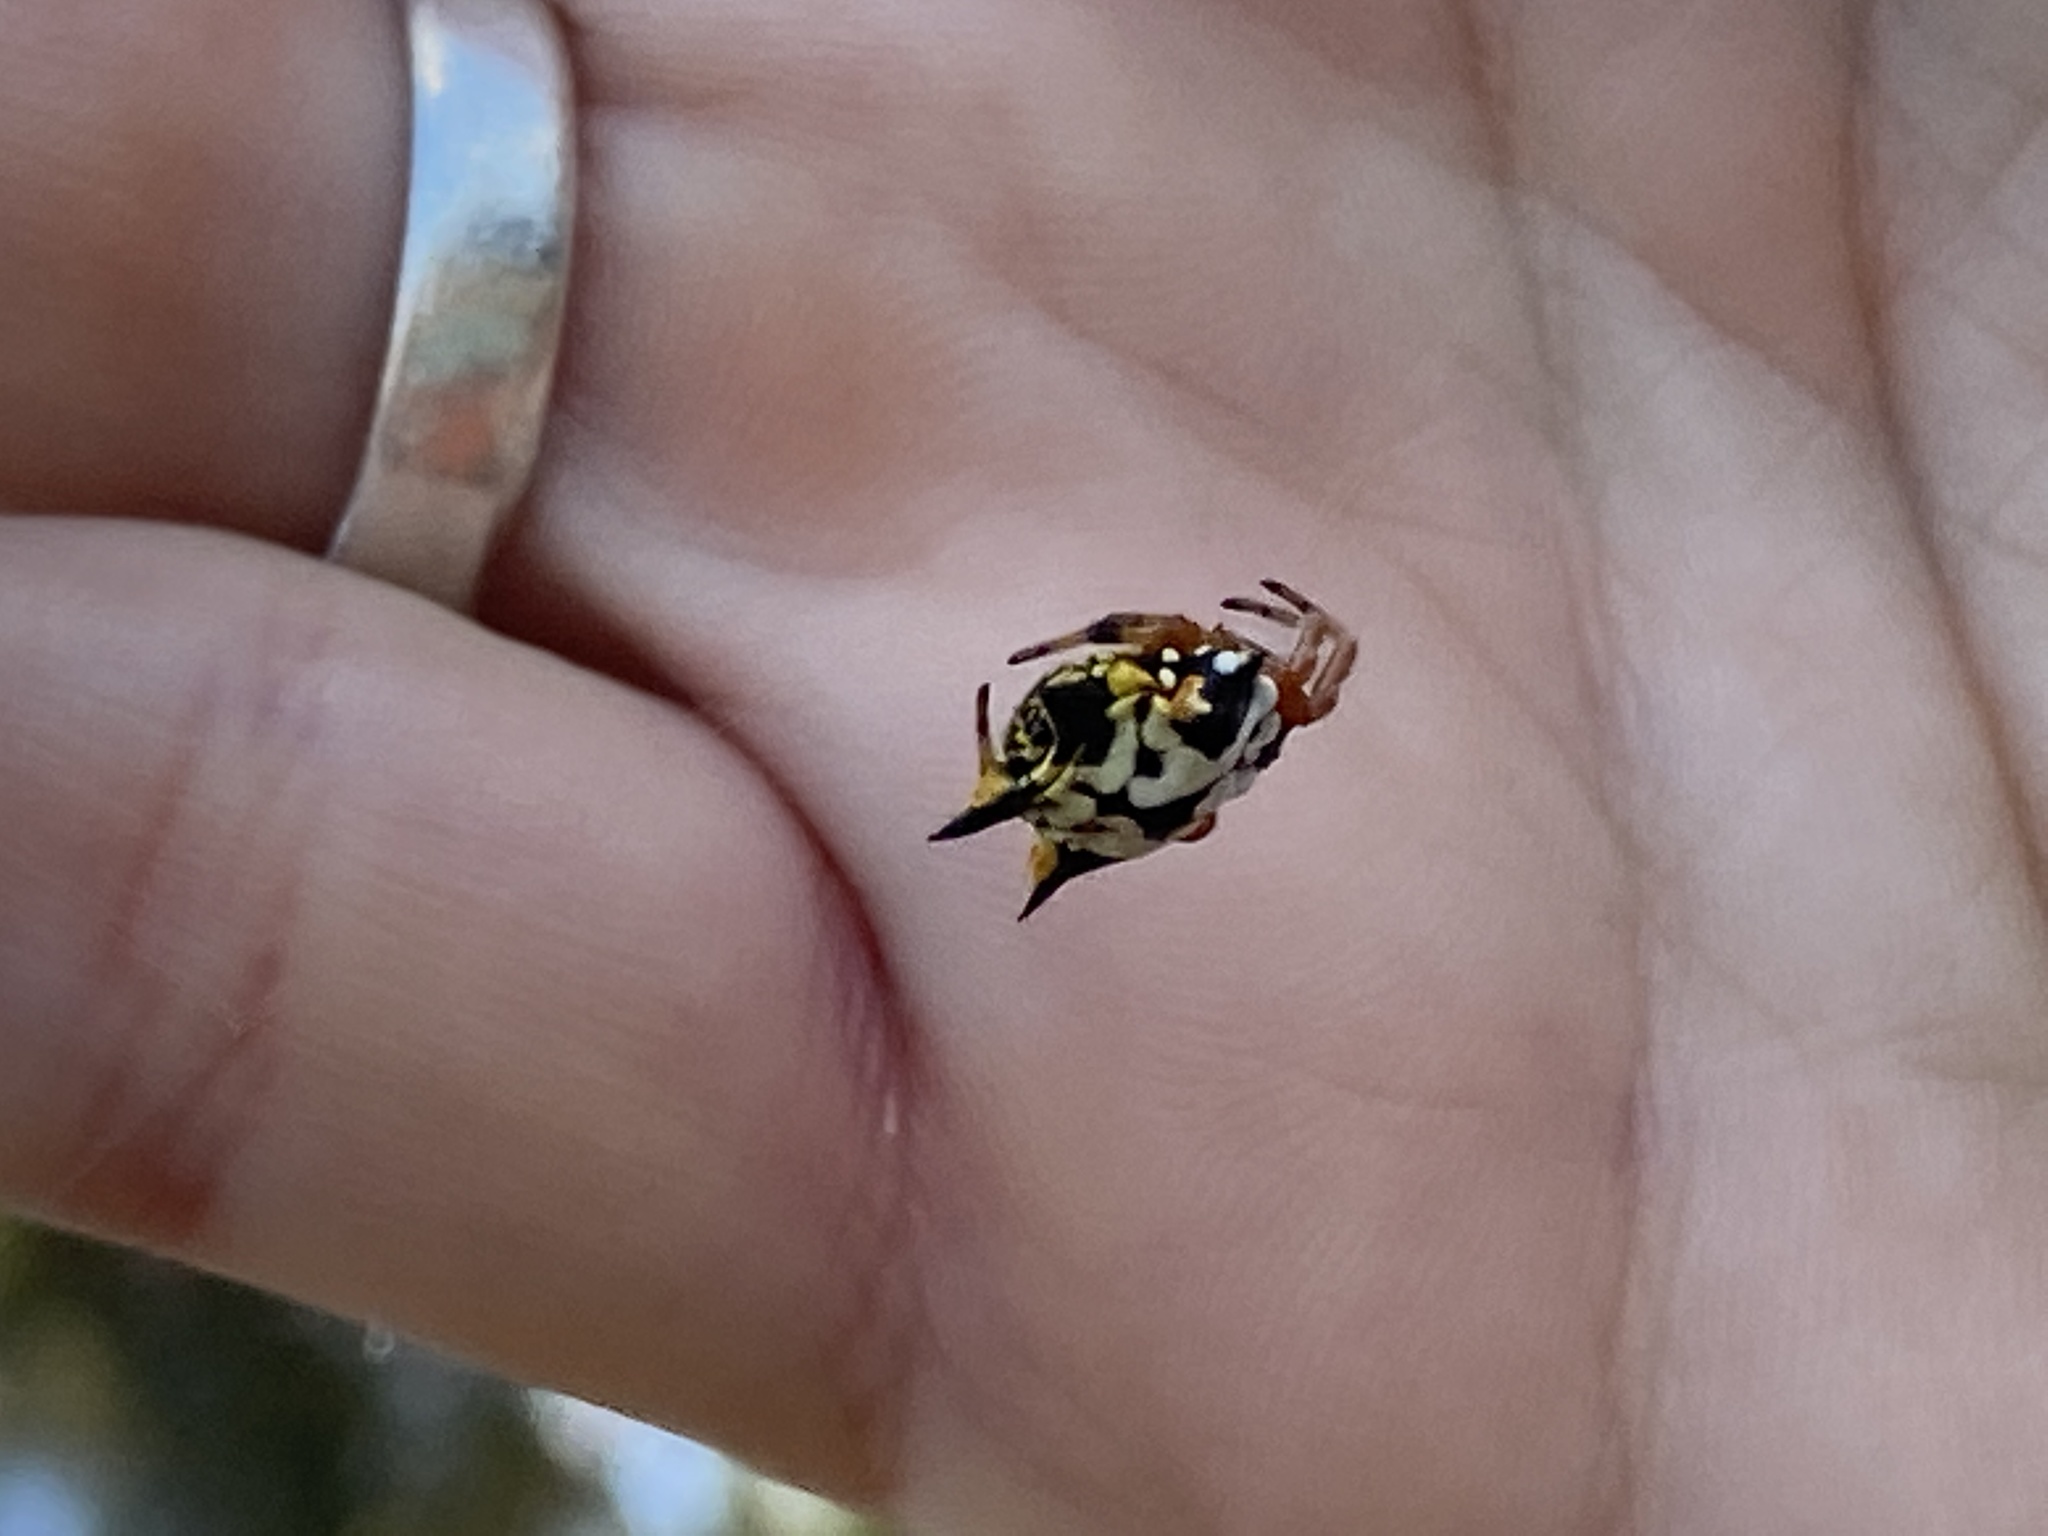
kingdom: Animalia
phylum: Arthropoda
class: Arachnida
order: Araneae
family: Araneidae
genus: Austracantha
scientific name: Austracantha minax
